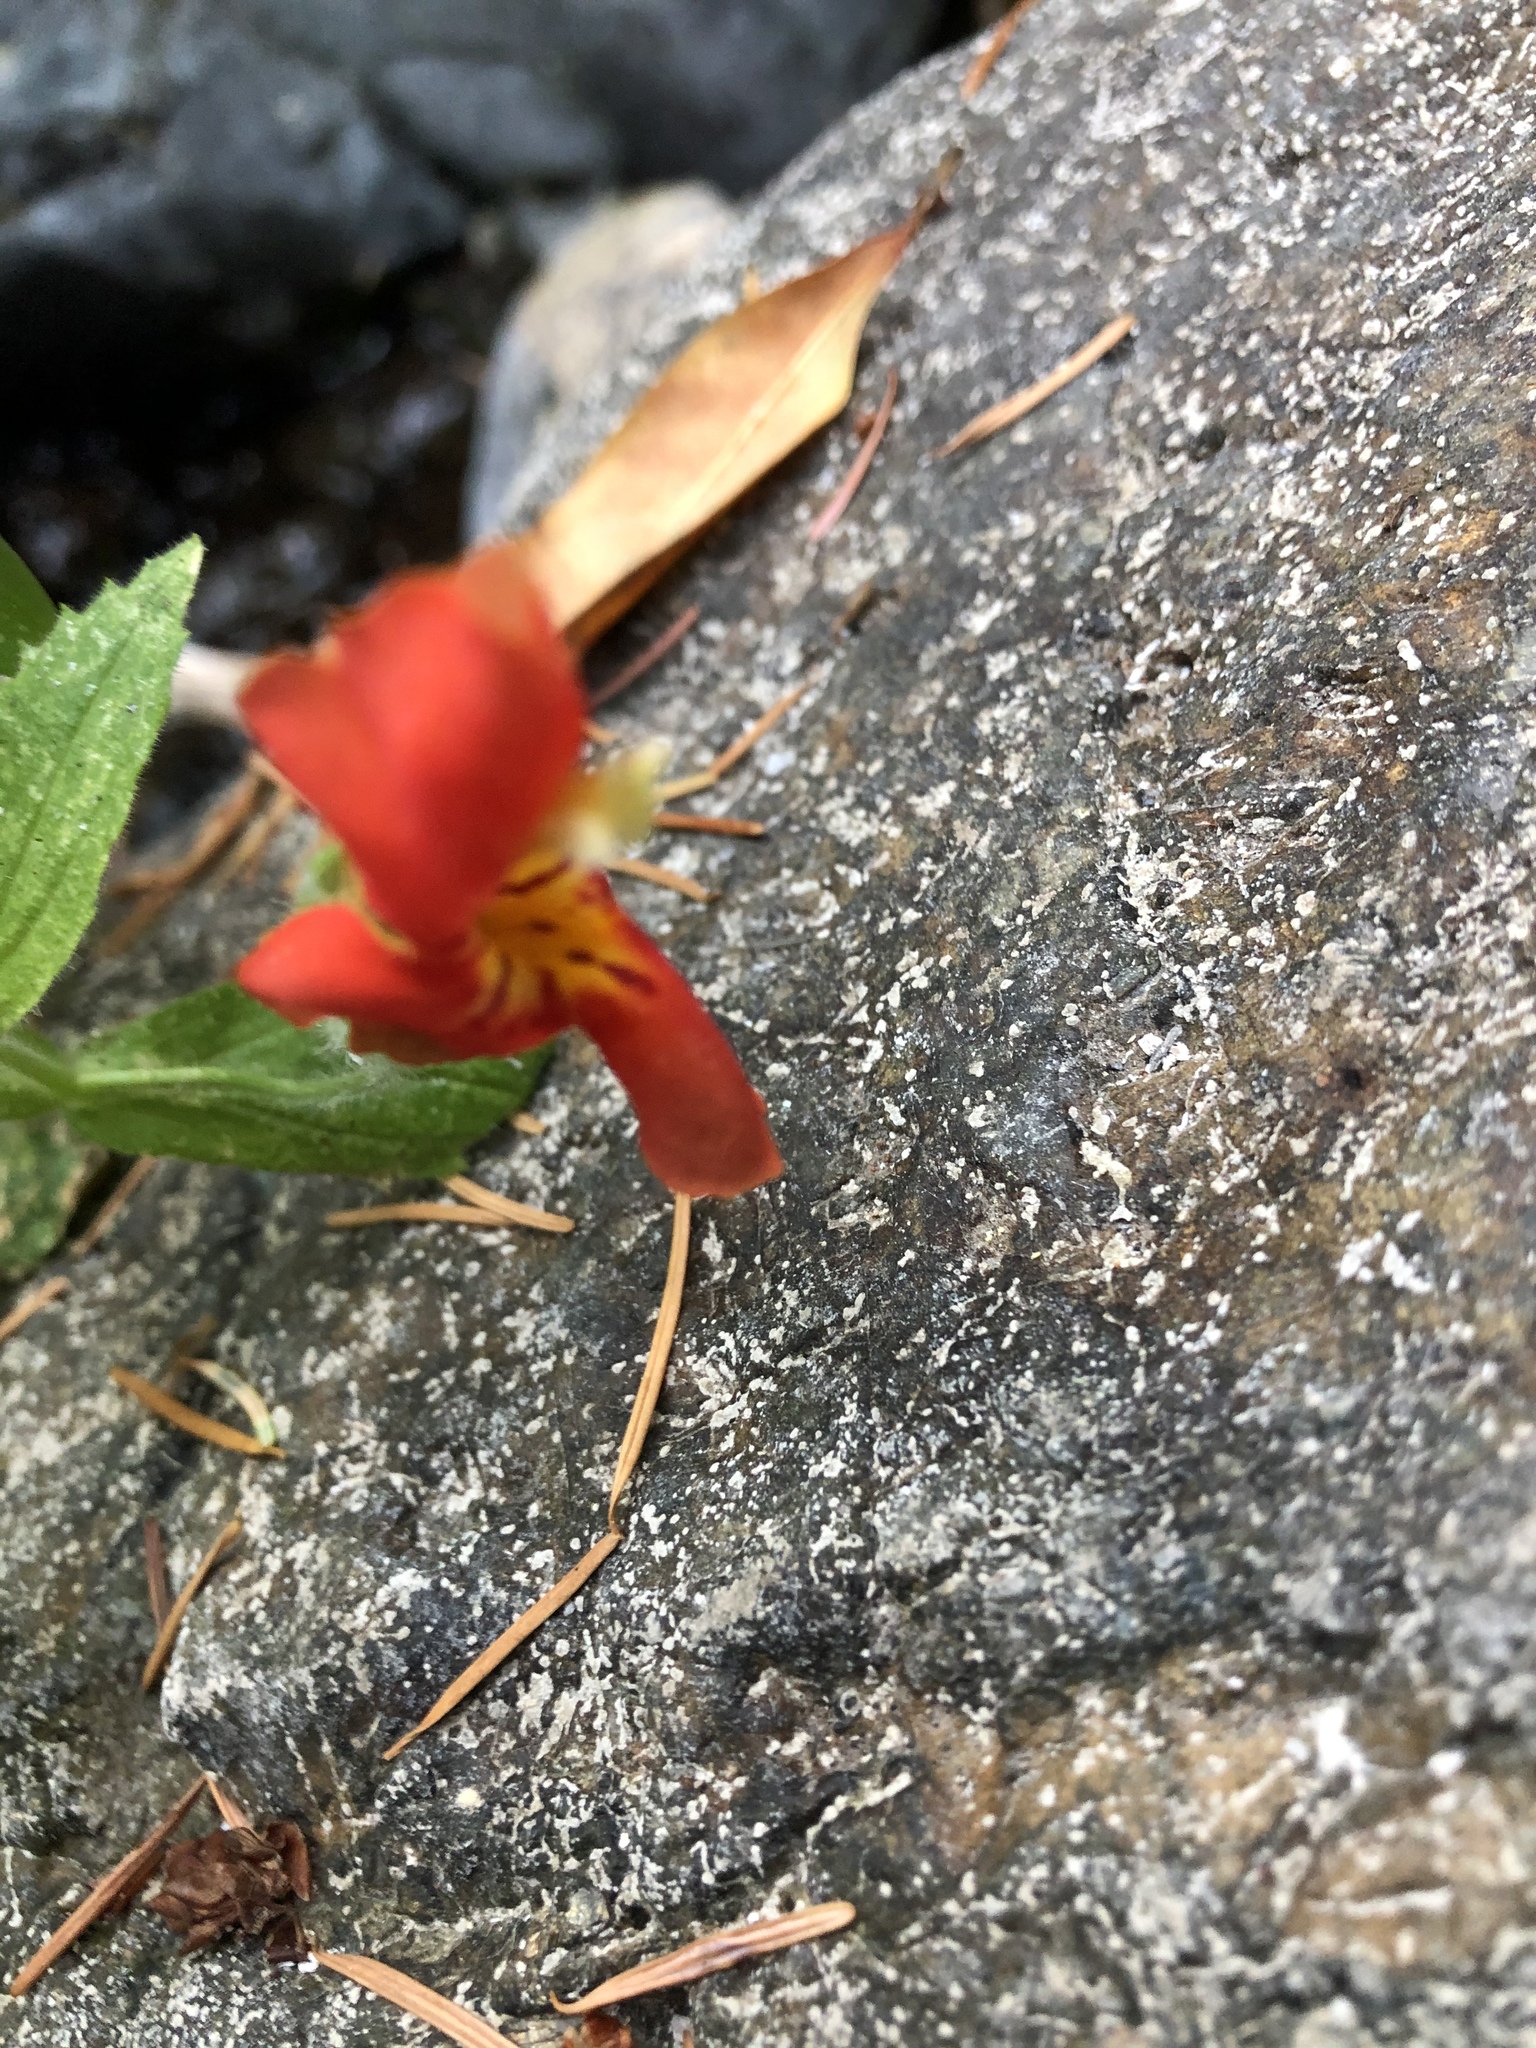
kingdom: Plantae
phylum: Tracheophyta
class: Magnoliopsida
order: Lamiales
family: Phrymaceae
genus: Erythranthe
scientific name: Erythranthe cardinalis
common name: Scarlet monkey-flower
